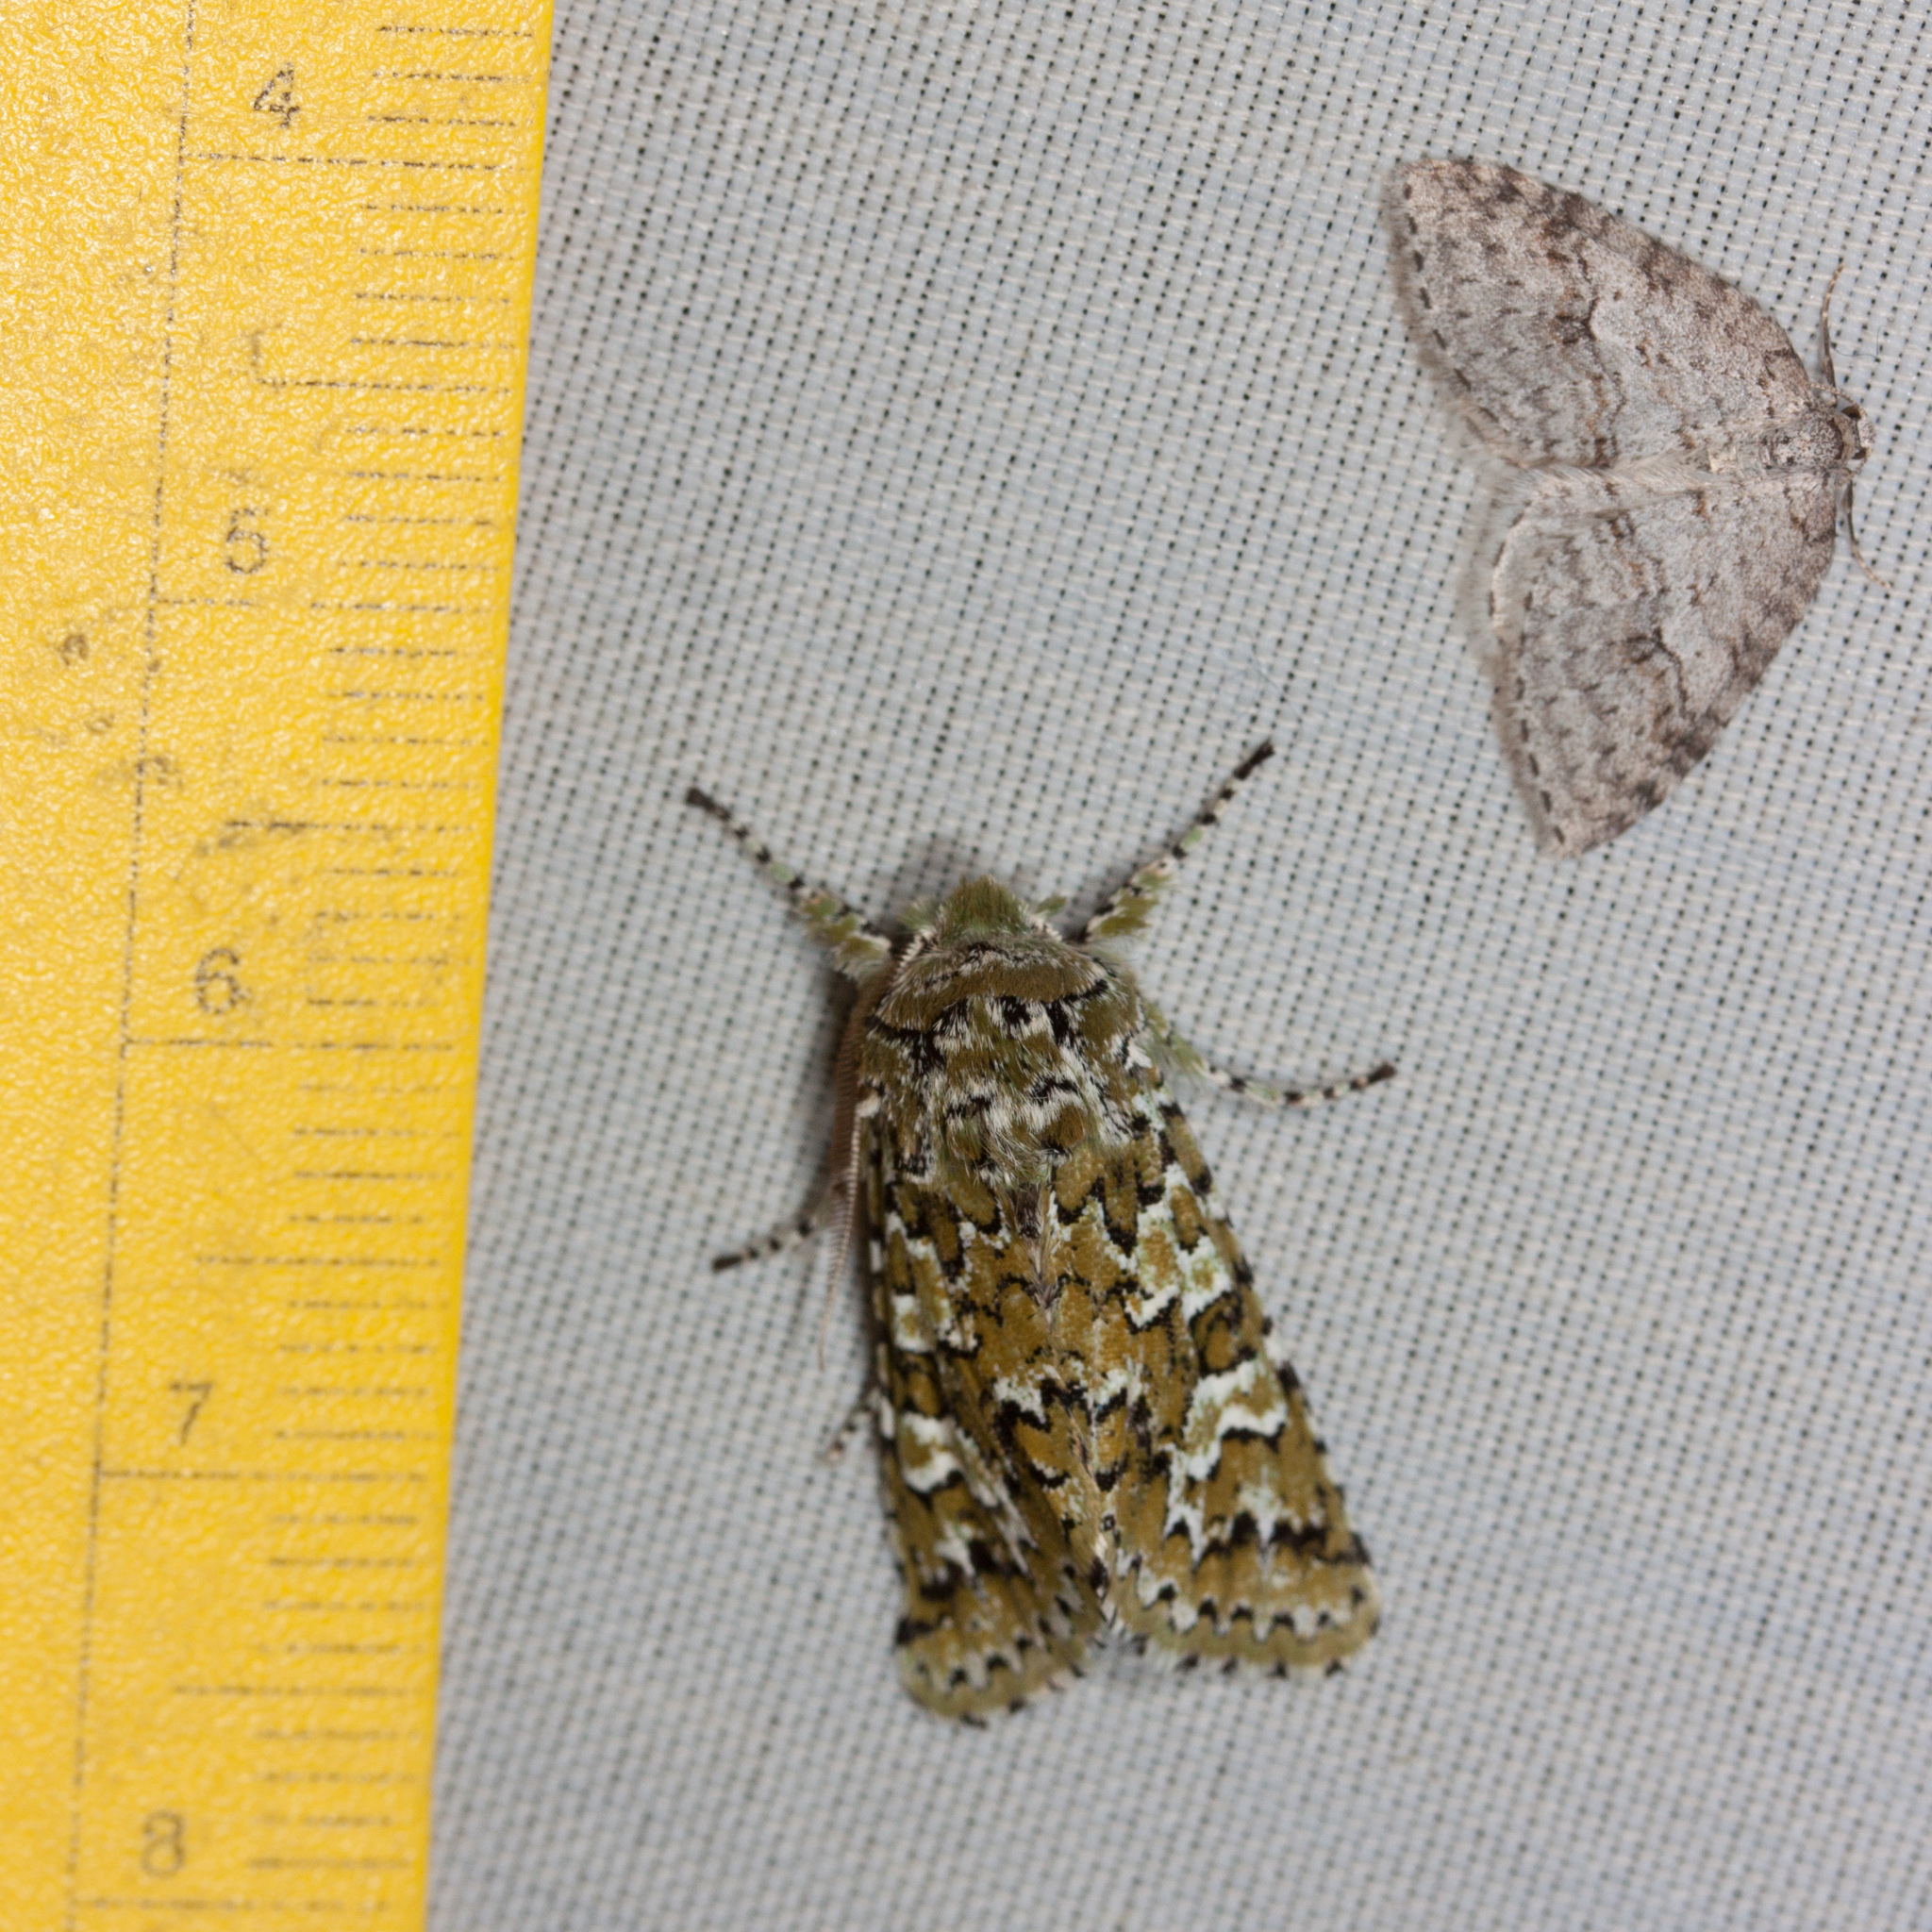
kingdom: Animalia
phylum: Arthropoda
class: Insecta
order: Lepidoptera
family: Noctuidae
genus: Feralia
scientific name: Feralia februalis
